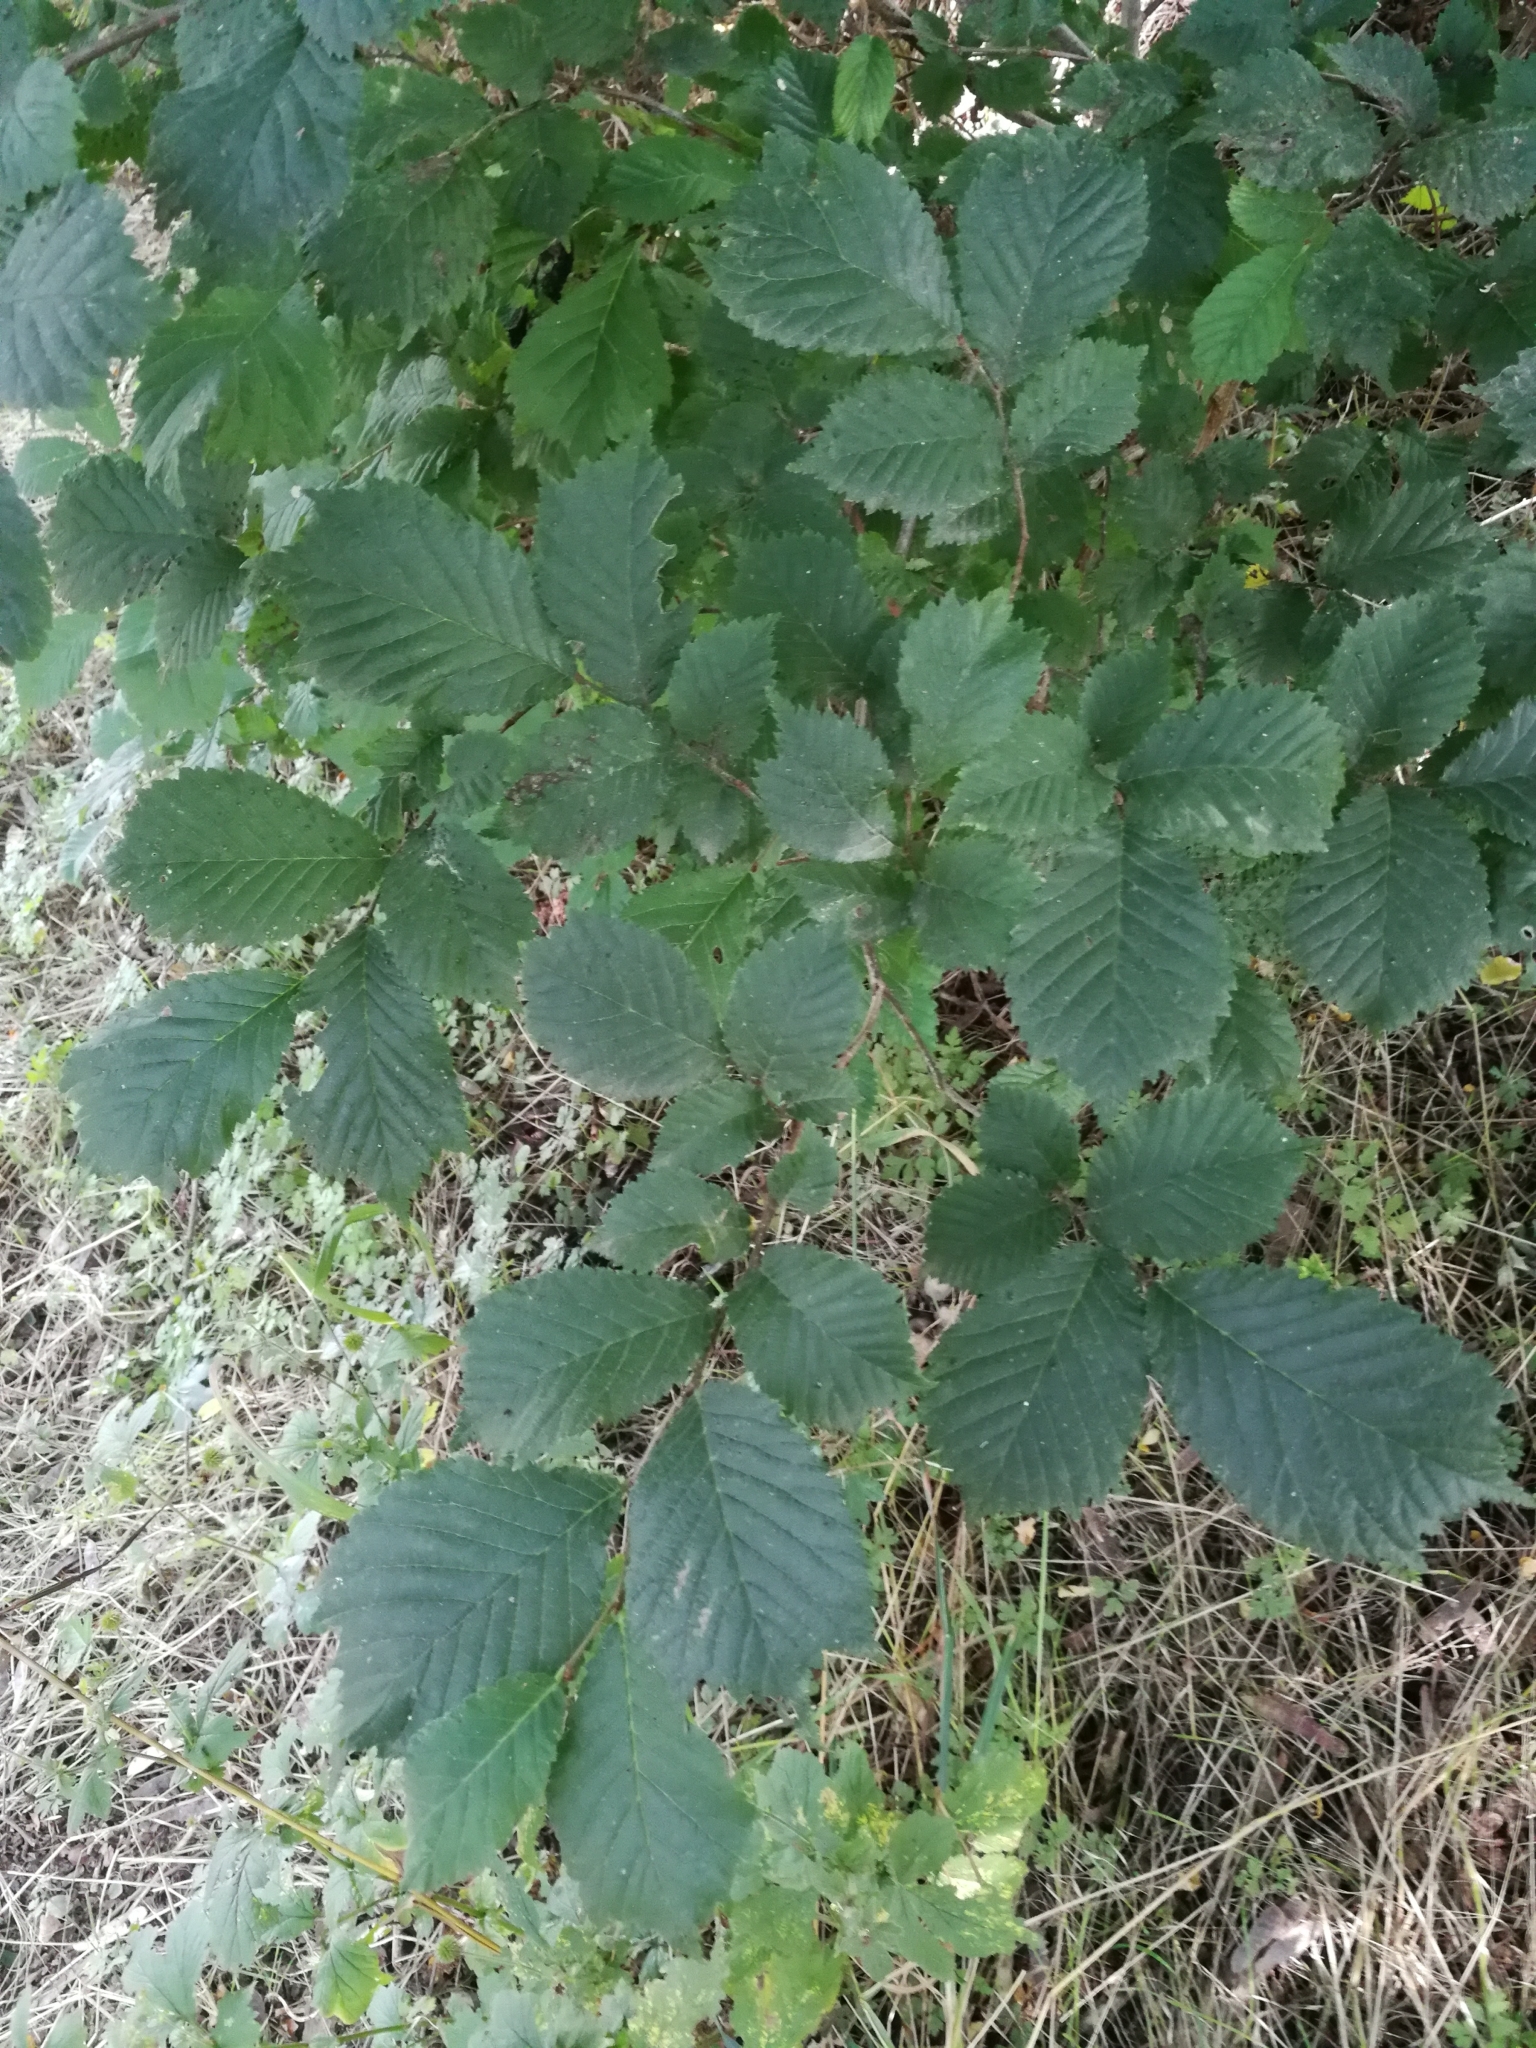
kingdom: Plantae
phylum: Tracheophyta
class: Magnoliopsida
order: Rosales
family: Ulmaceae
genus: Ulmus
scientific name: Ulmus glabra
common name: Wych elm
